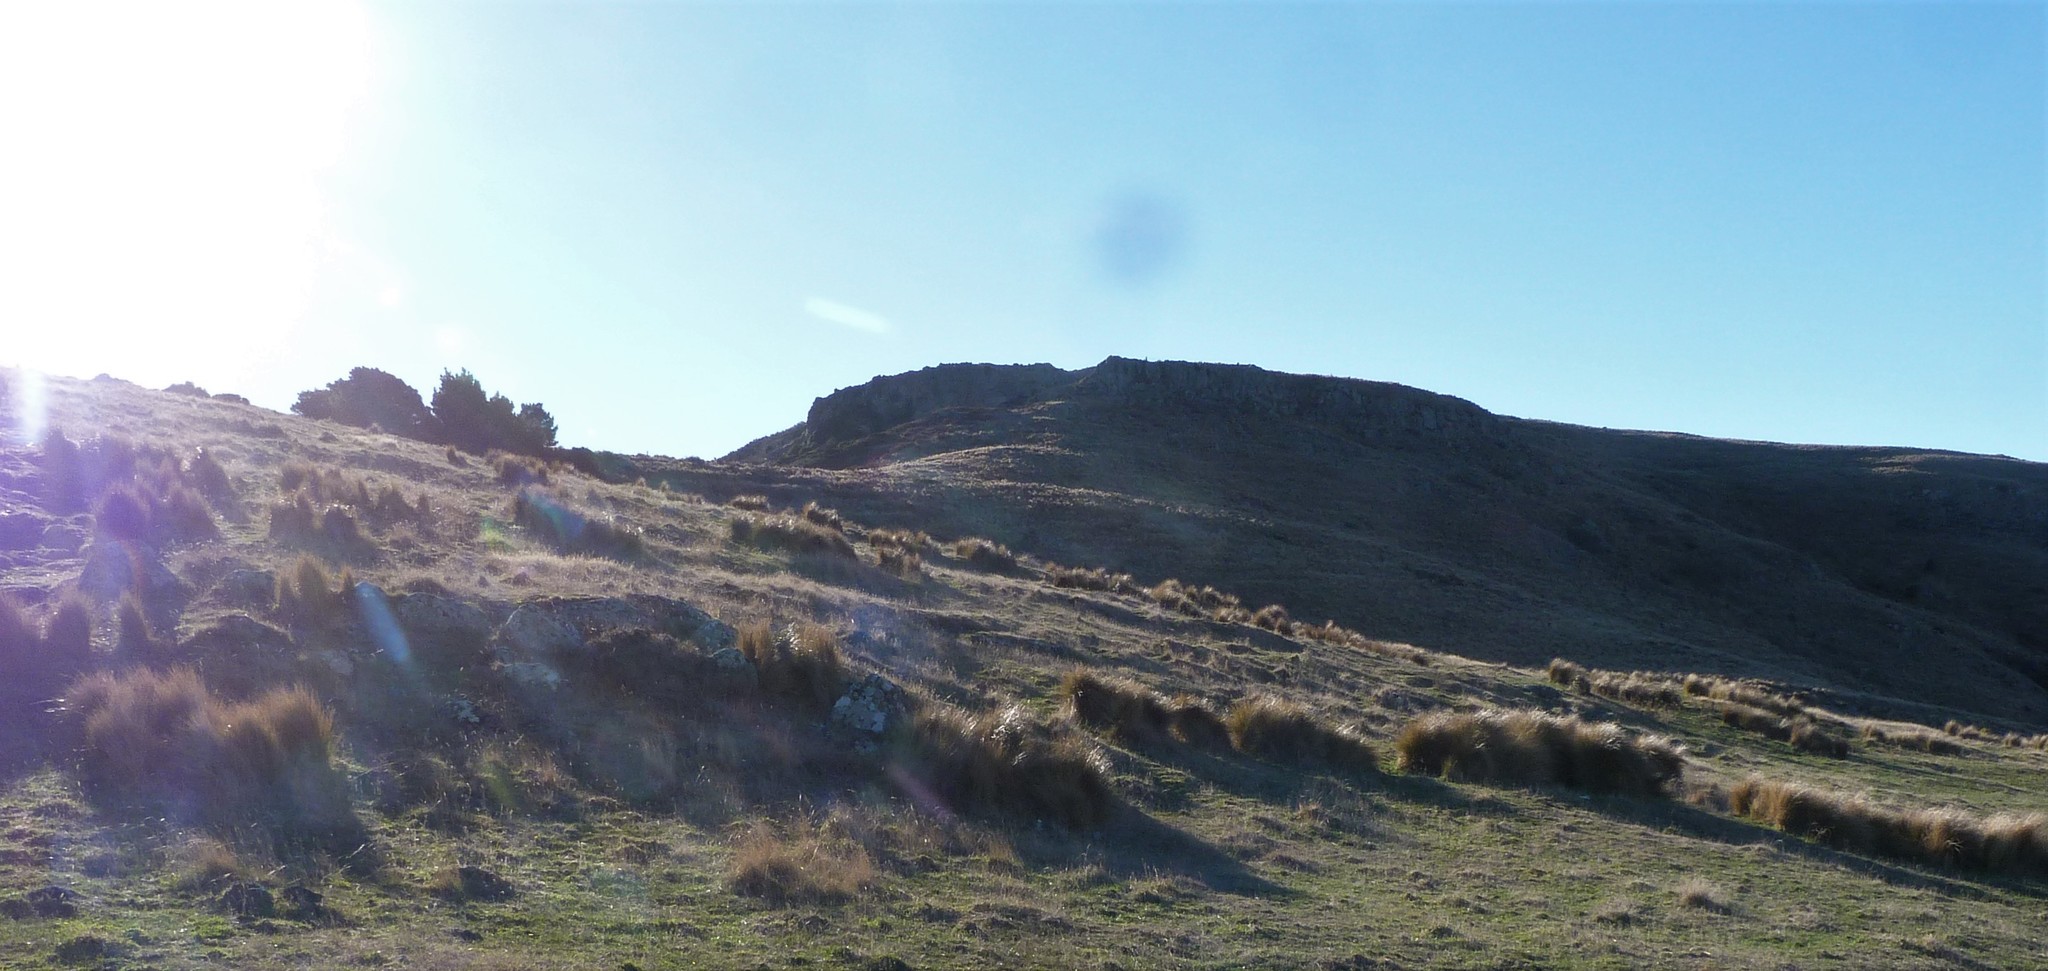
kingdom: Plantae
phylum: Tracheophyta
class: Liliopsida
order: Poales
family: Poaceae
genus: Poa
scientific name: Poa cita
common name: Silver tussock
